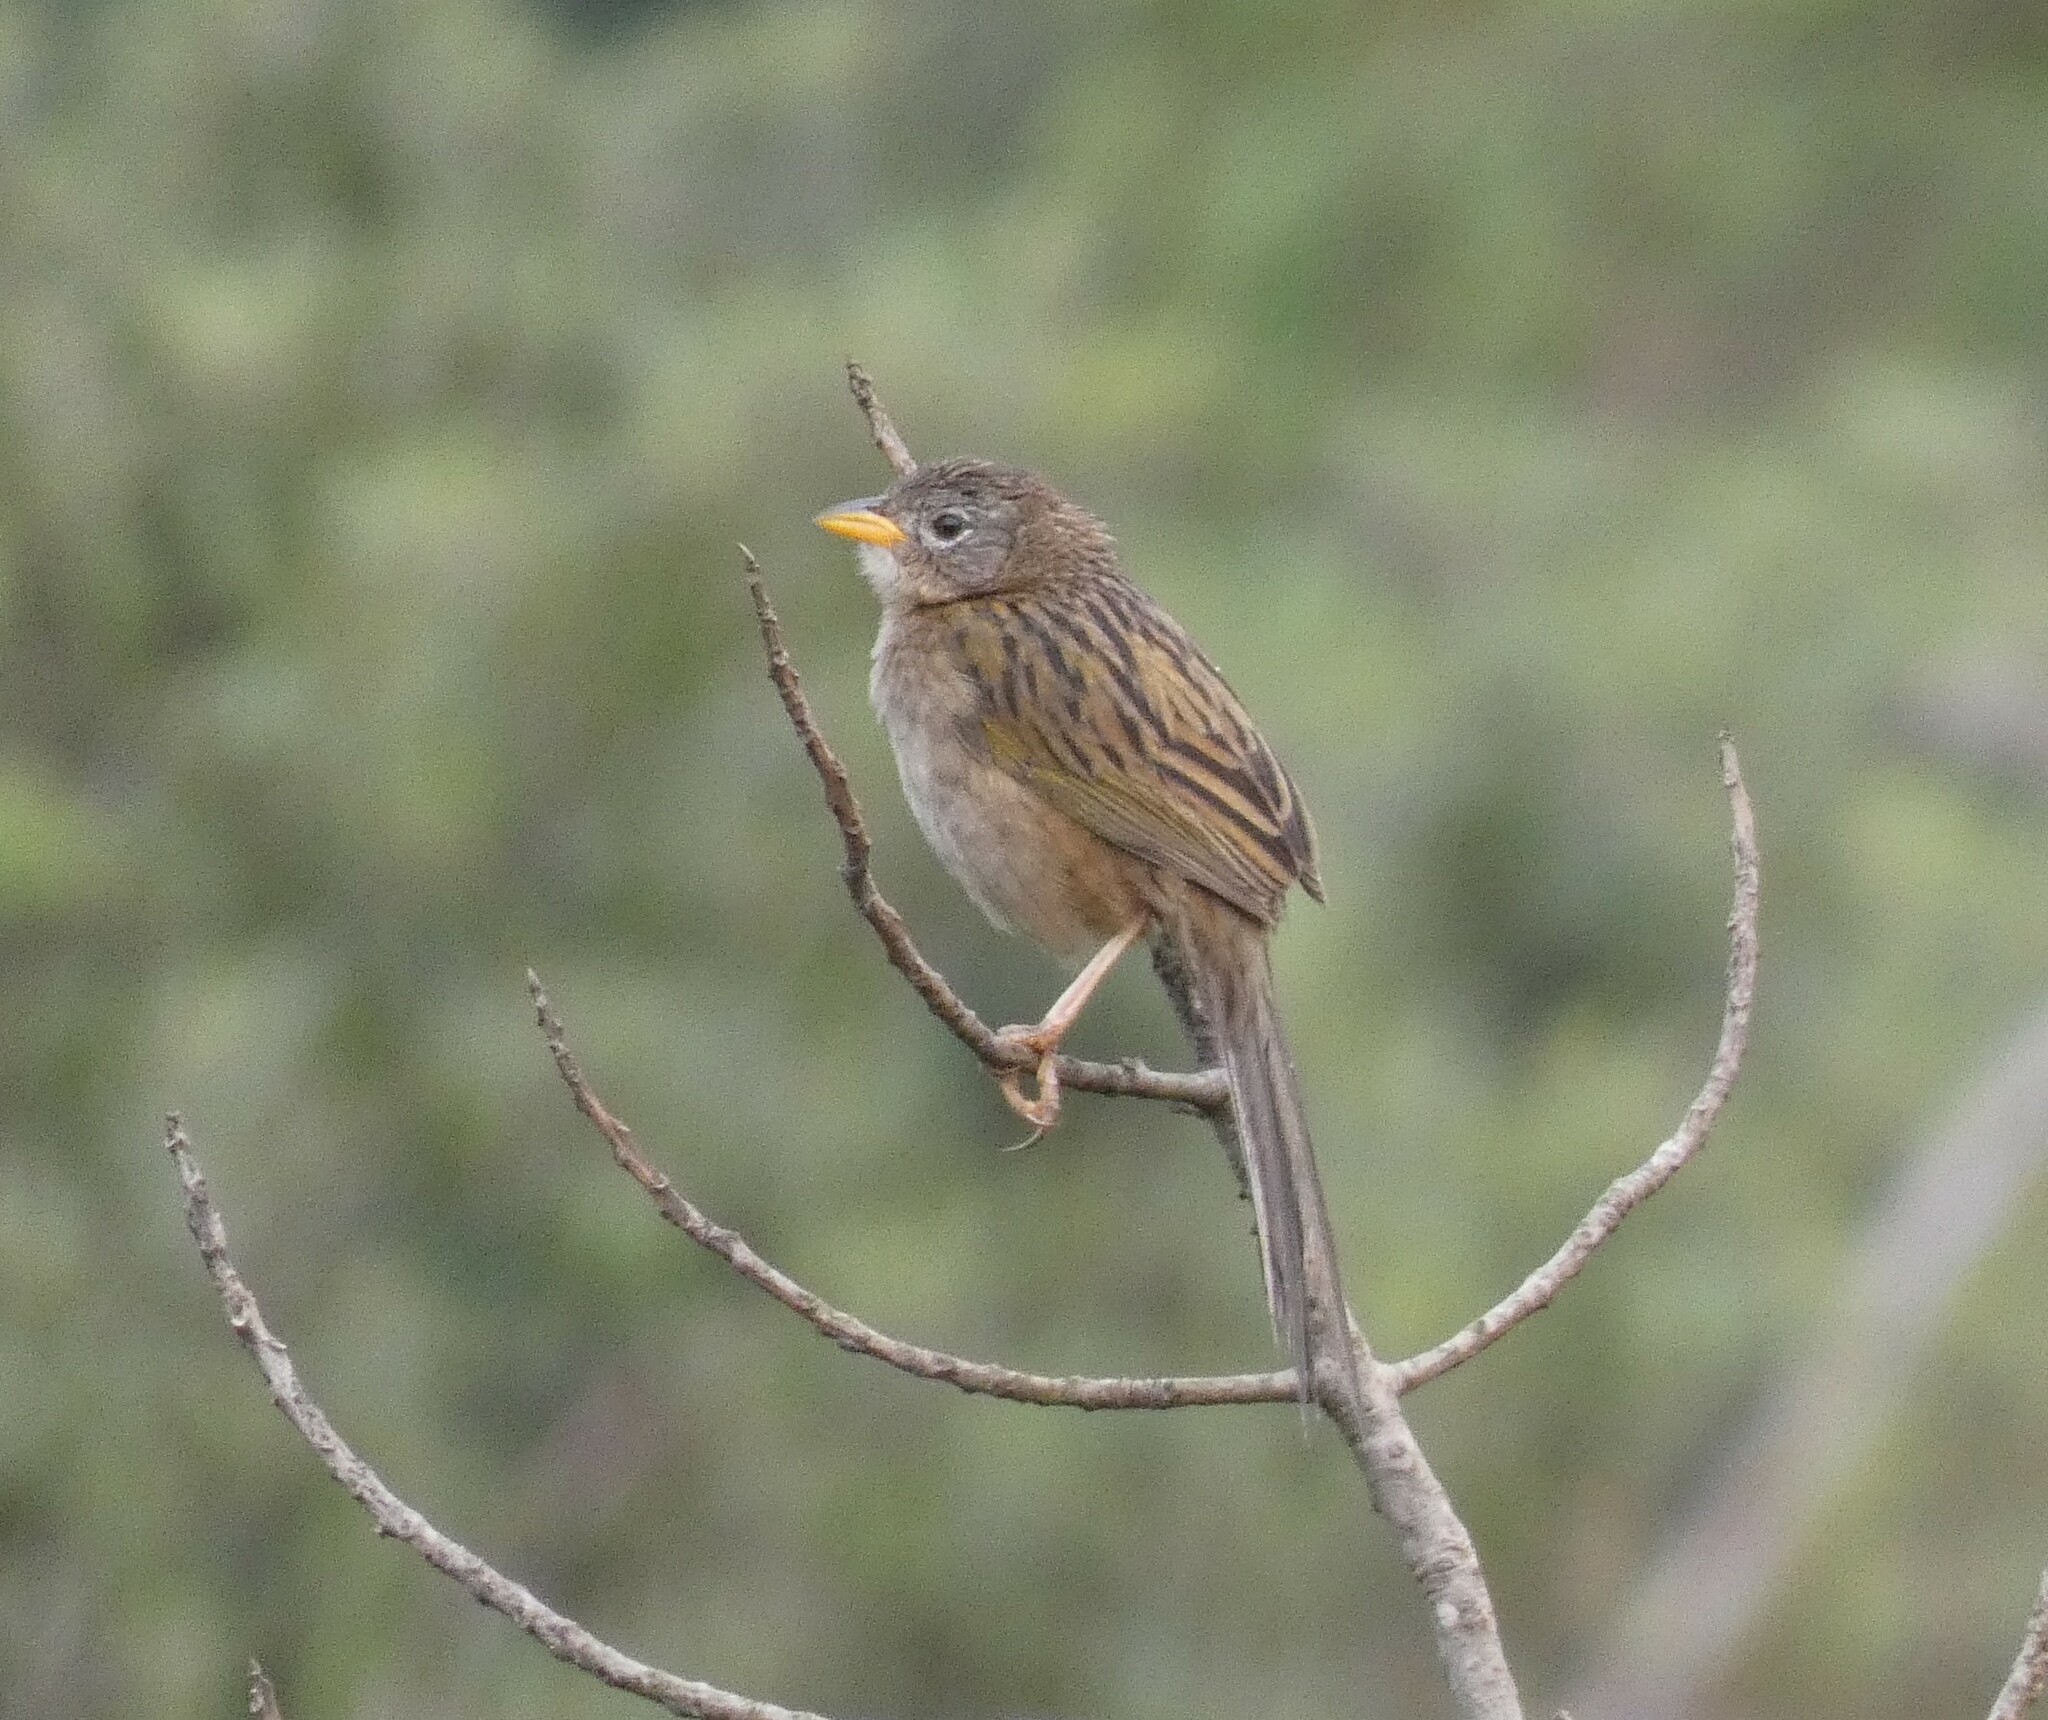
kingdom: Animalia
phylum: Chordata
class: Aves
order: Passeriformes
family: Thraupidae
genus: Emberizoides
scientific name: Emberizoides herbicola
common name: Wedge-tailed grass-finch
